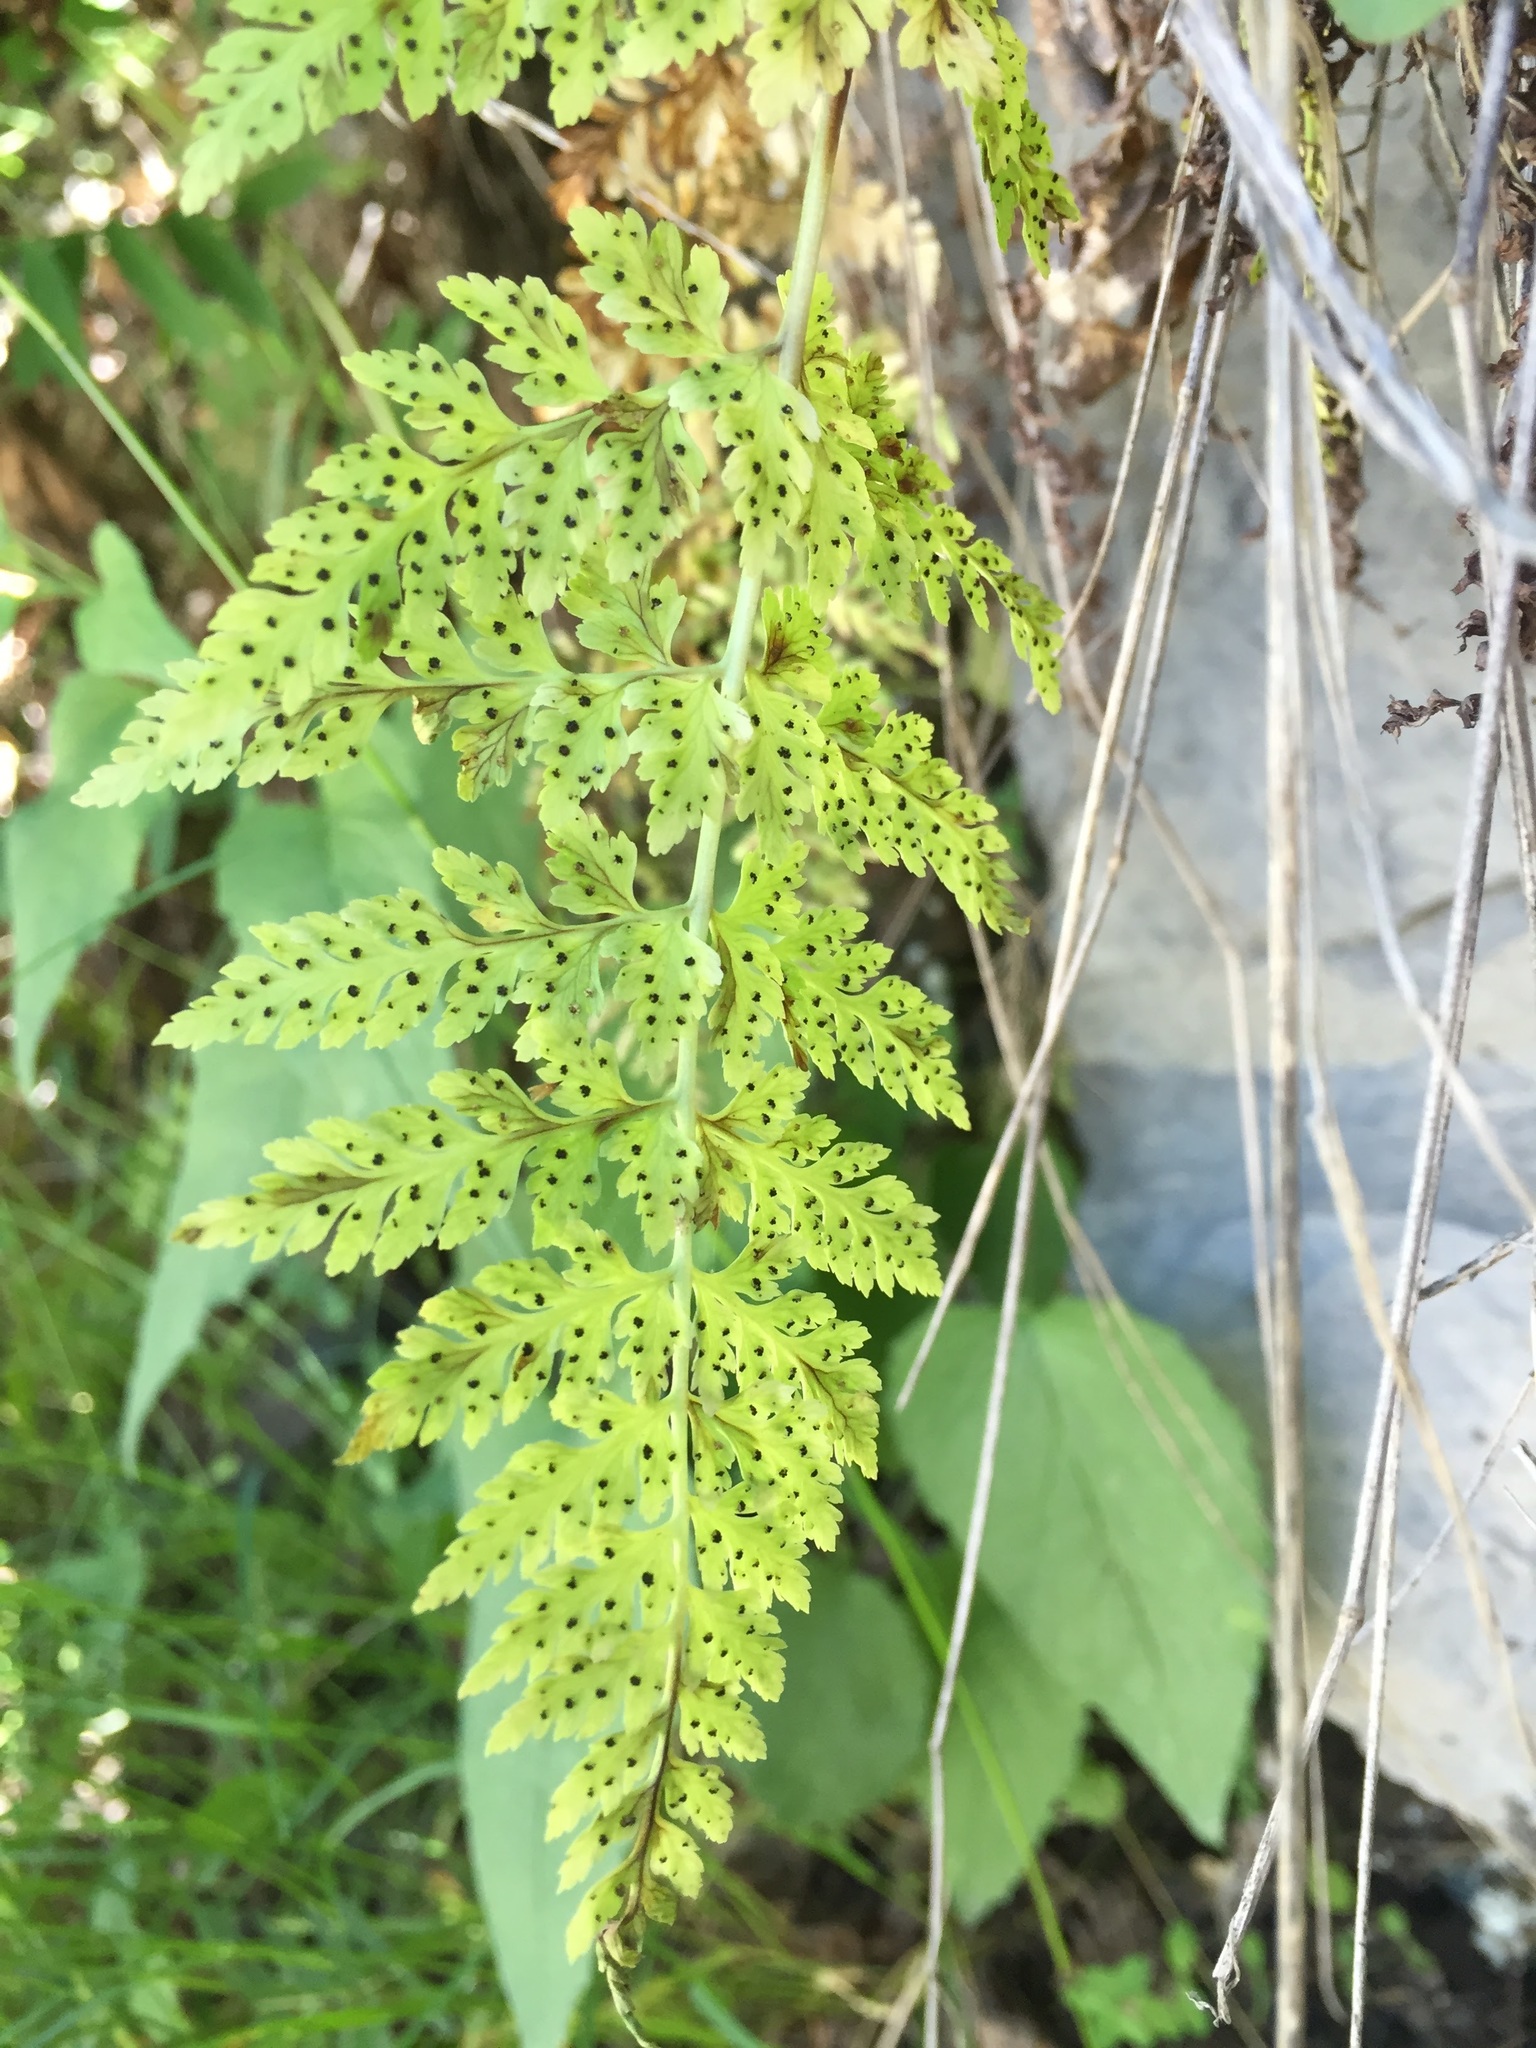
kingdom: Plantae
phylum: Tracheophyta
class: Polypodiopsida
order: Polypodiales
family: Cystopteridaceae
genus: Cystopteris
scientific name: Cystopteris fragilis
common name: Brittle bladder fern
